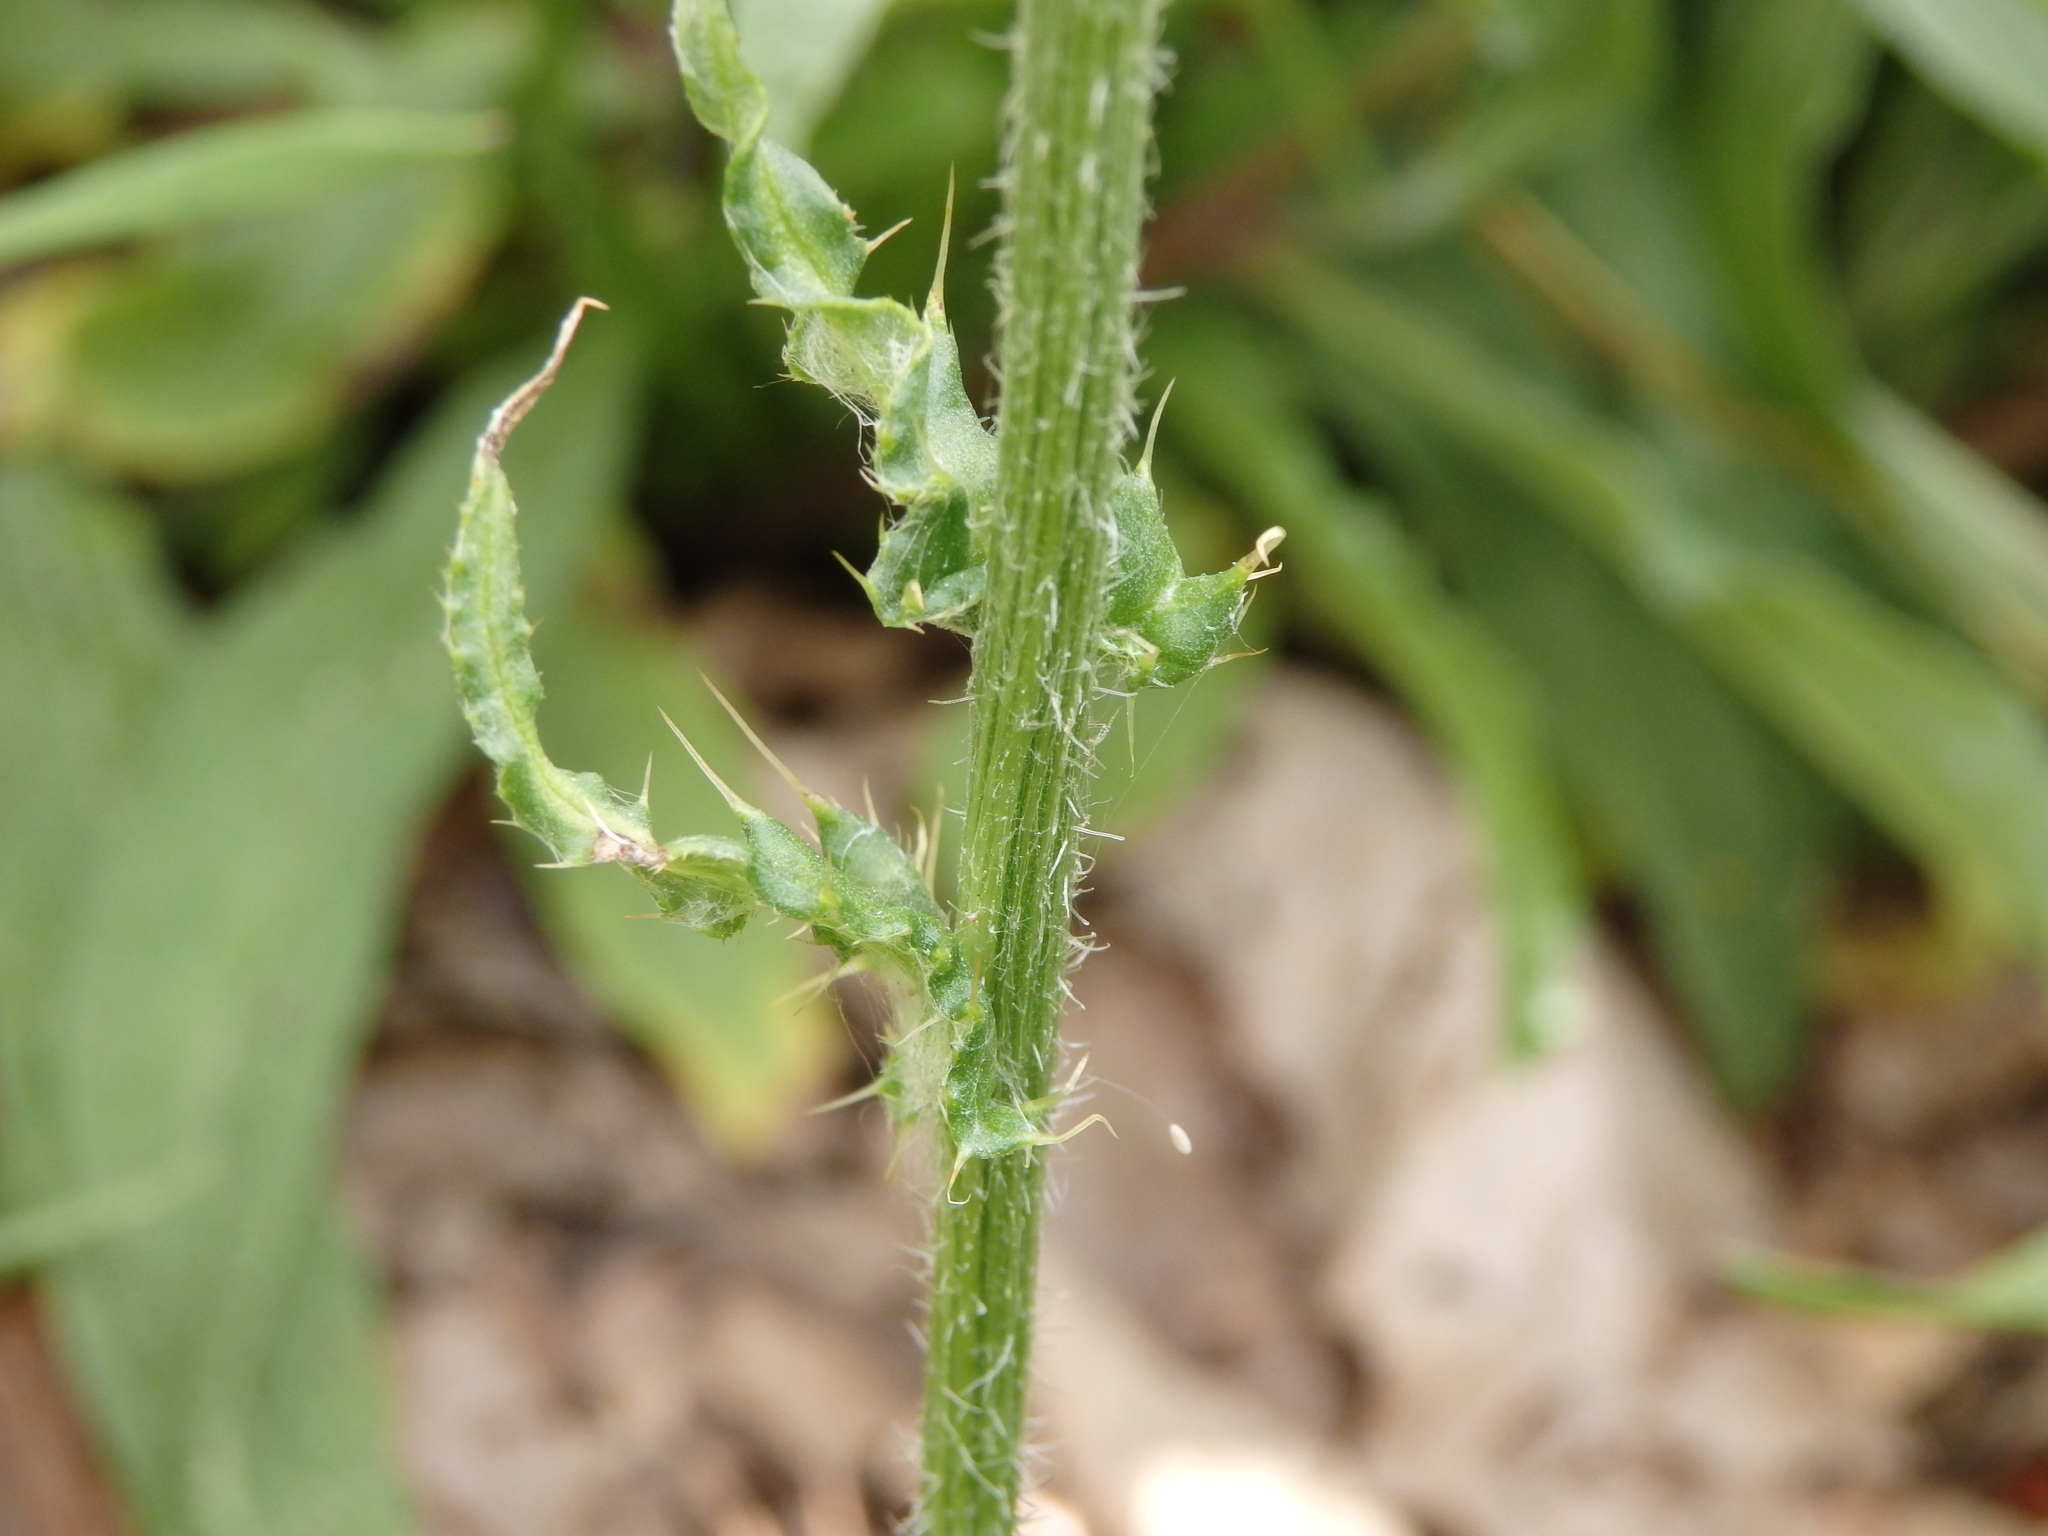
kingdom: Plantae
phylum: Tracheophyta
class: Magnoliopsida
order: Asterales
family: Asteraceae
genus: Cirsium
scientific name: Cirsium filipendulum
